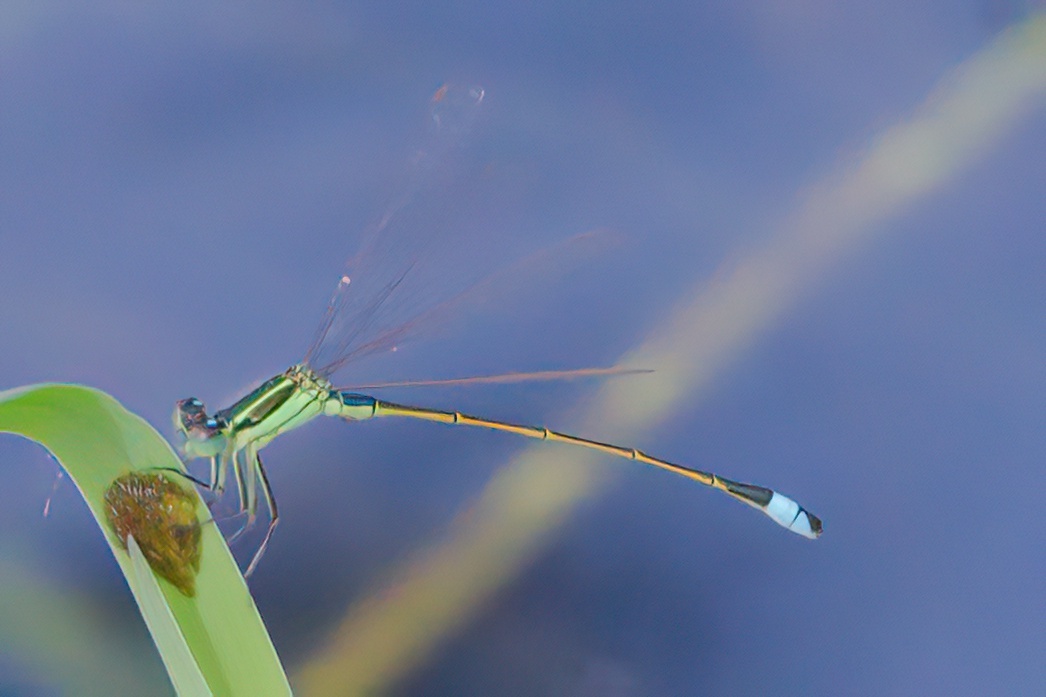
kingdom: Animalia
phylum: Arthropoda
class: Insecta
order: Odonata
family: Coenagrionidae
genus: Ischnura
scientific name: Ischnura ramburii
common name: Rambur's forktail
